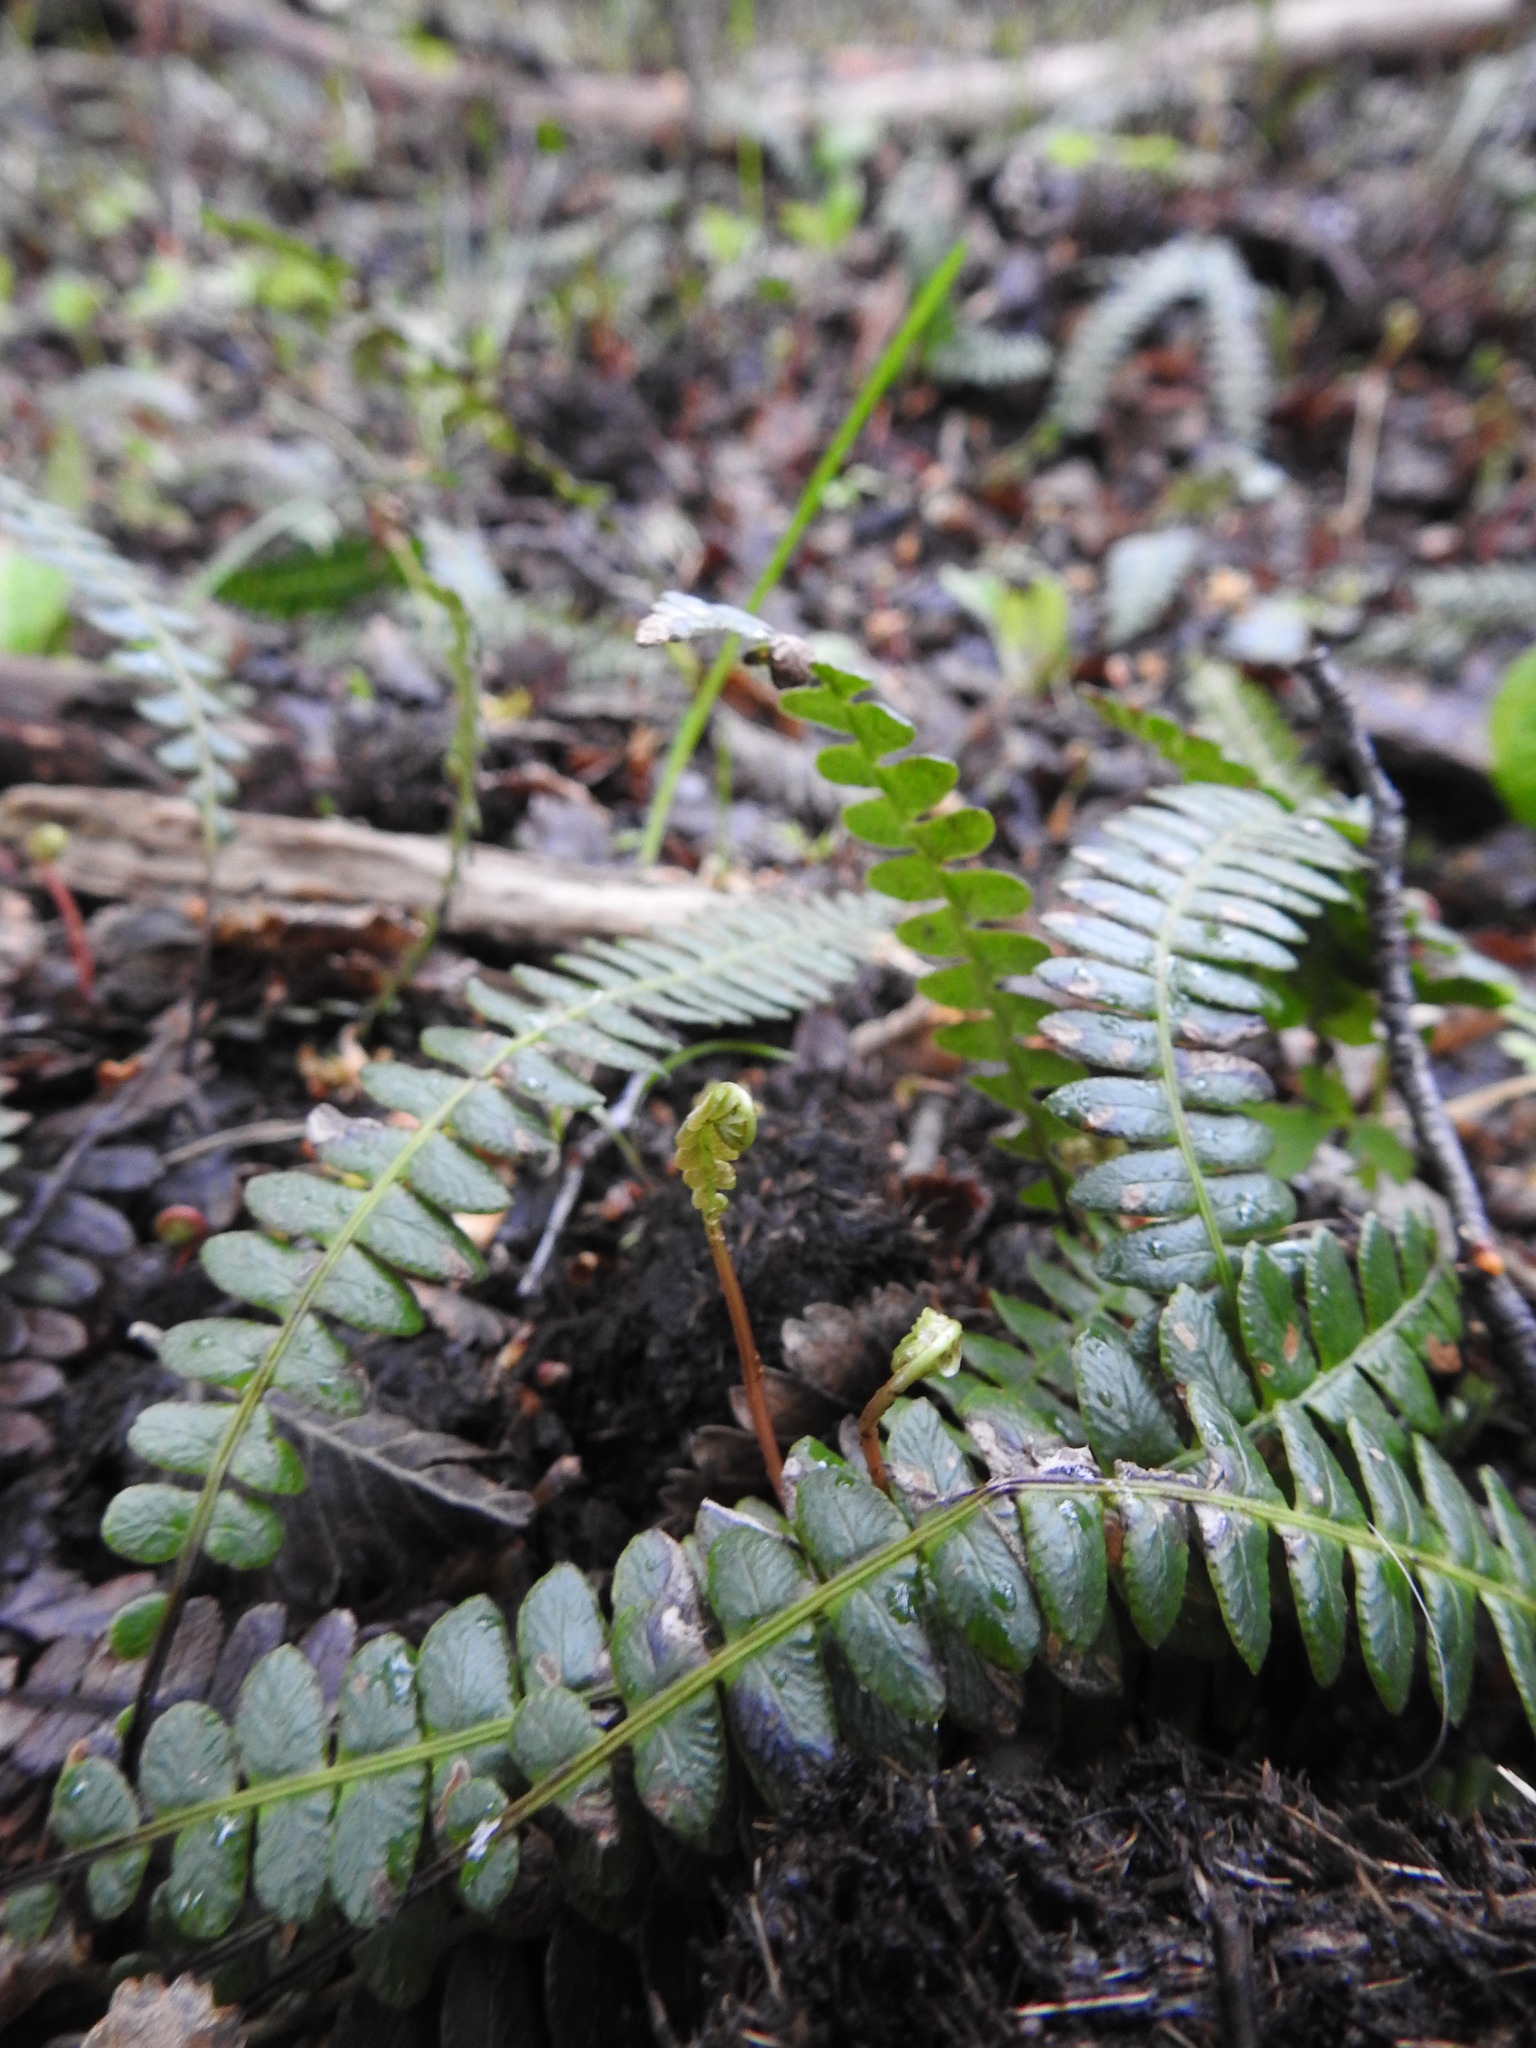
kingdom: Plantae
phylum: Tracheophyta
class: Polypodiopsida
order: Polypodiales
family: Blechnaceae
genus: Austroblechnum
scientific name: Austroblechnum penna-marina
